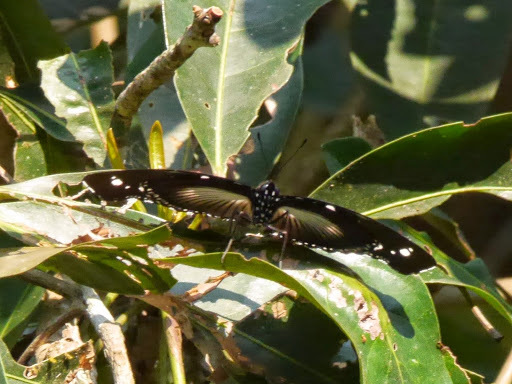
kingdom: Animalia
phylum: Arthropoda
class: Insecta
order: Lepidoptera
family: Nymphalidae
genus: Hypolimnas
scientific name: Hypolimnas dinarcha
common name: Large variable diadem
